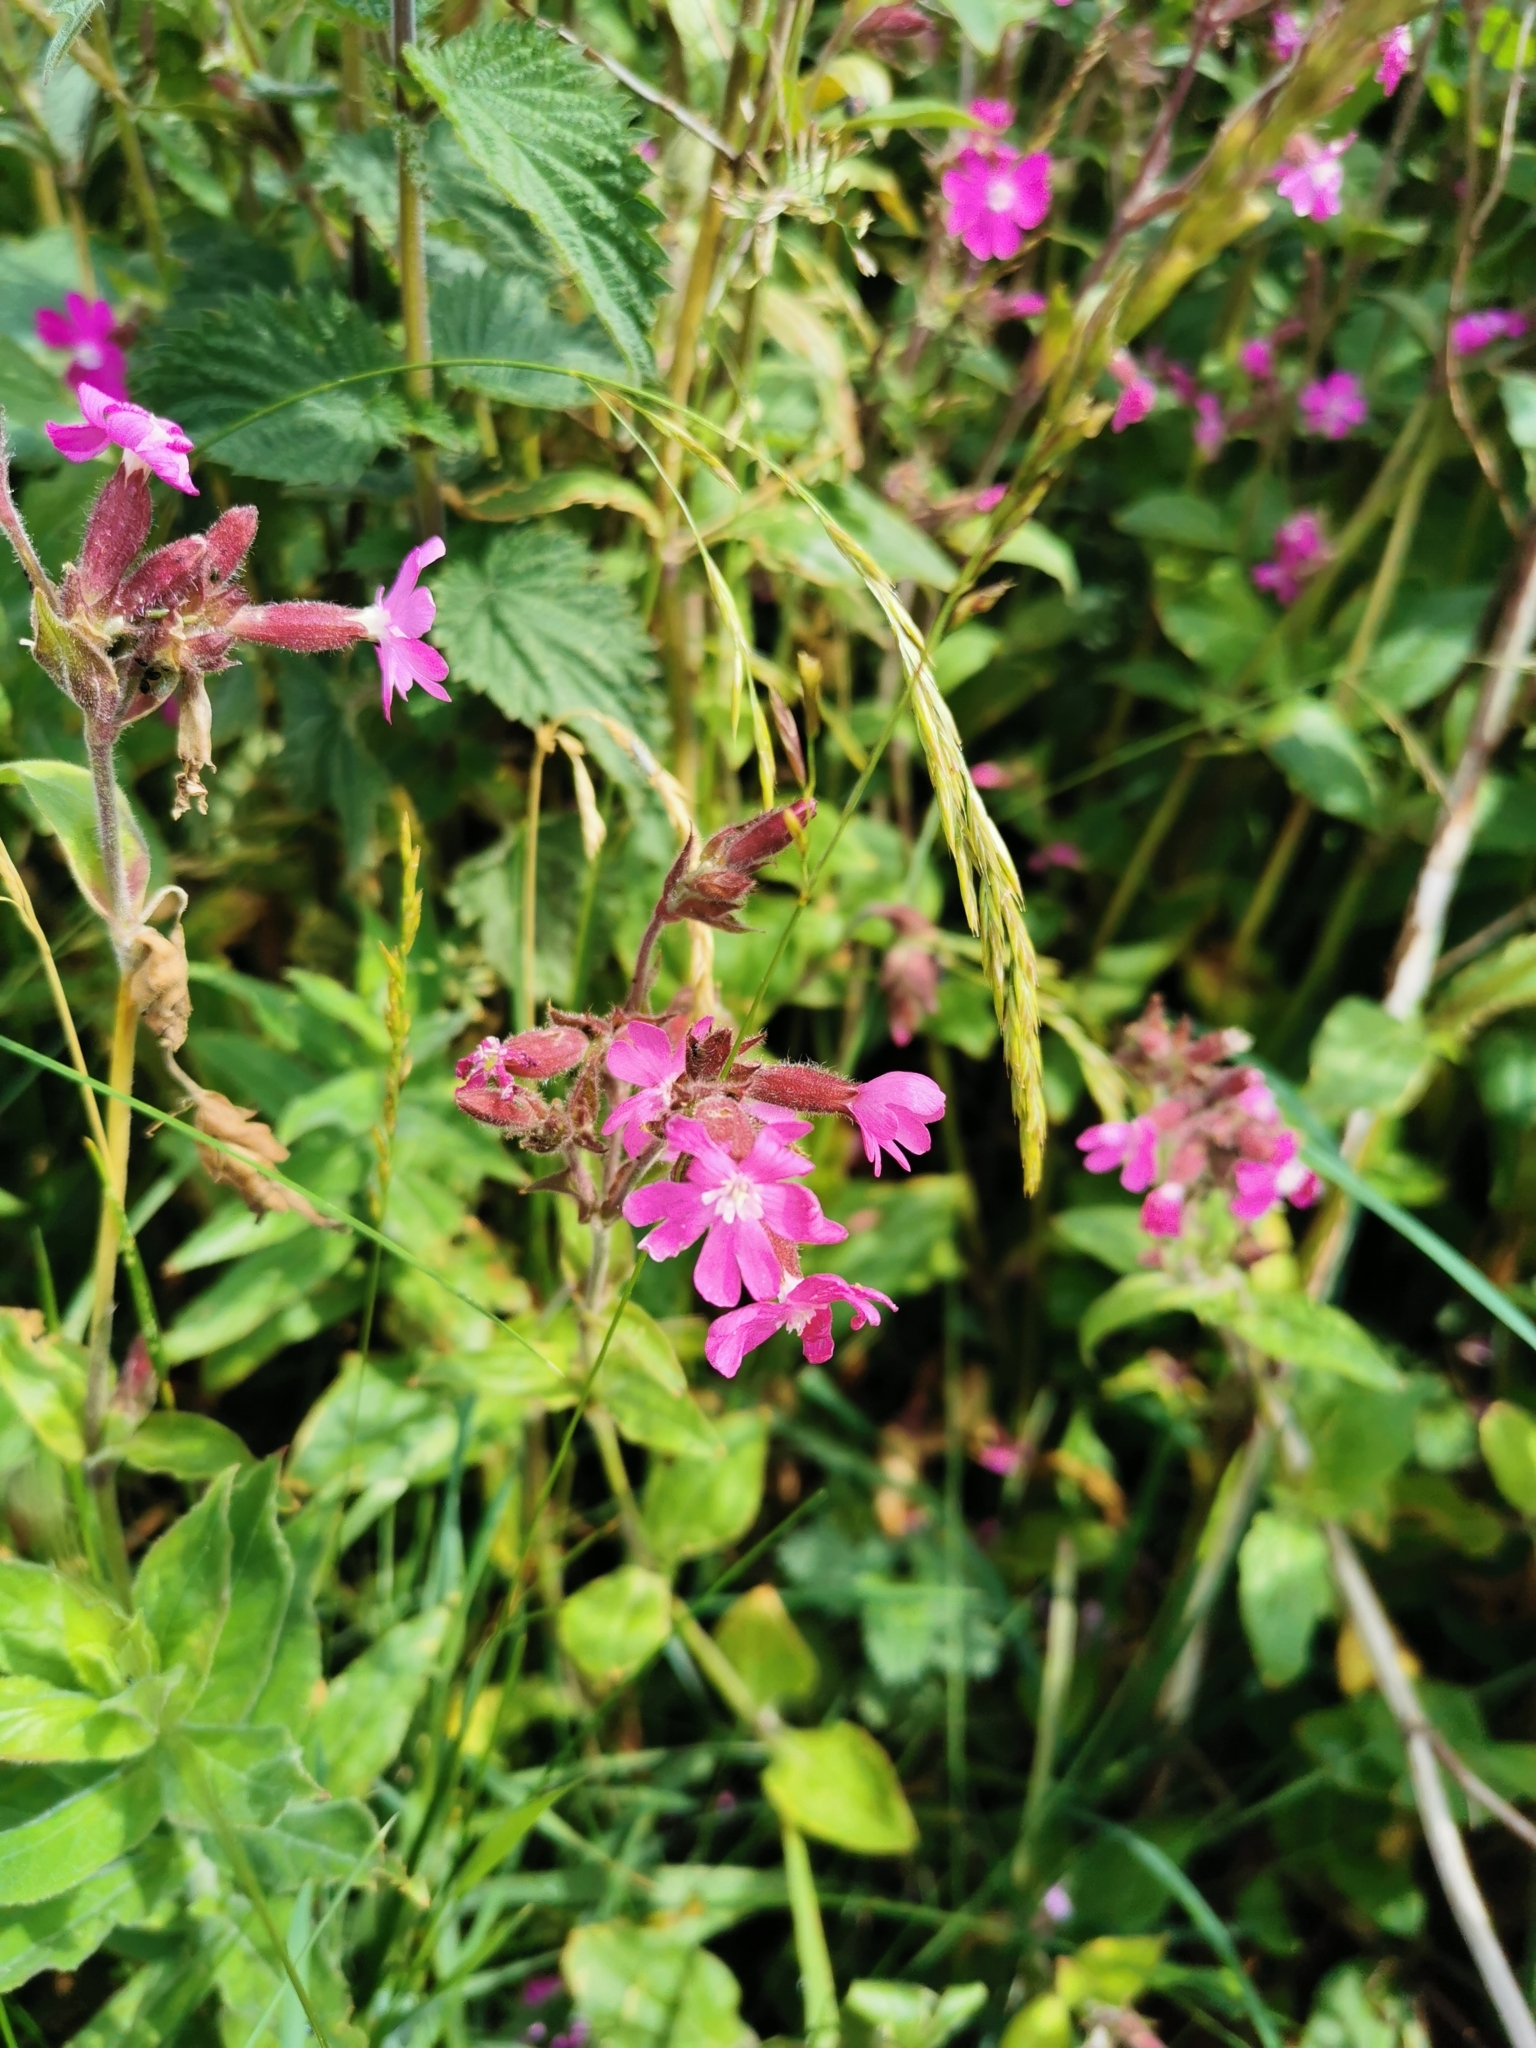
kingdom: Plantae
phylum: Tracheophyta
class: Magnoliopsida
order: Caryophyllales
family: Caryophyllaceae
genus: Silene
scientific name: Silene dioica
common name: Red campion
